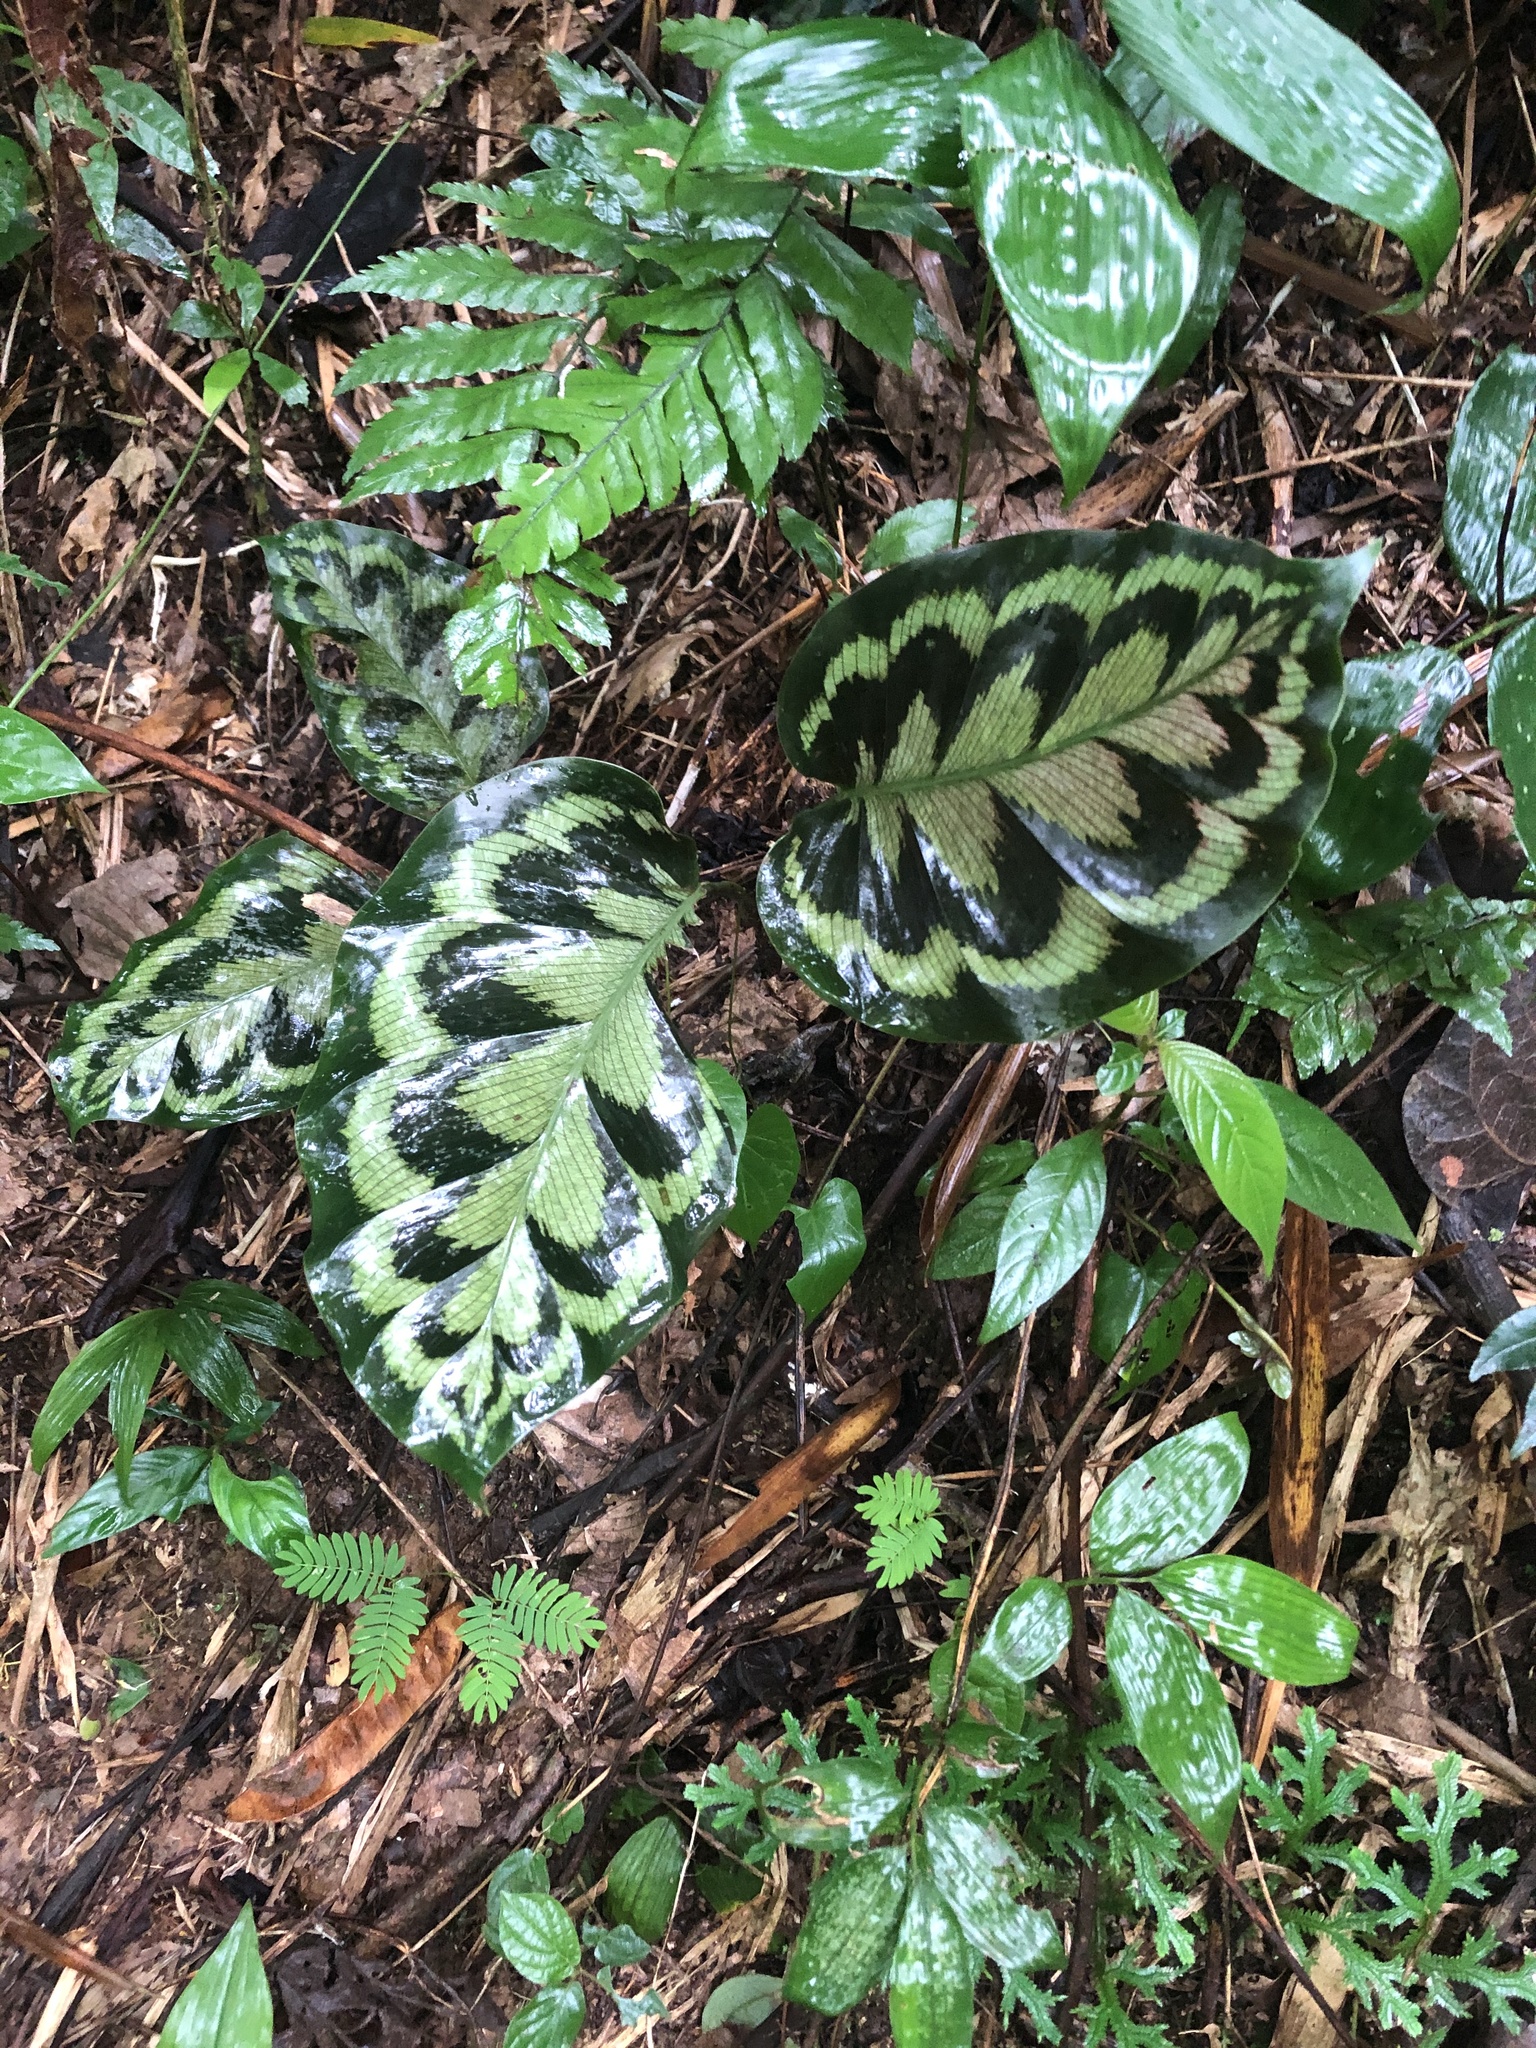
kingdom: Plantae
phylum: Tracheophyta
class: Liliopsida
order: Zingiberales
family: Marantaceae
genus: Goeppertia
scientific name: Goeppertia pseudoveitchiana
